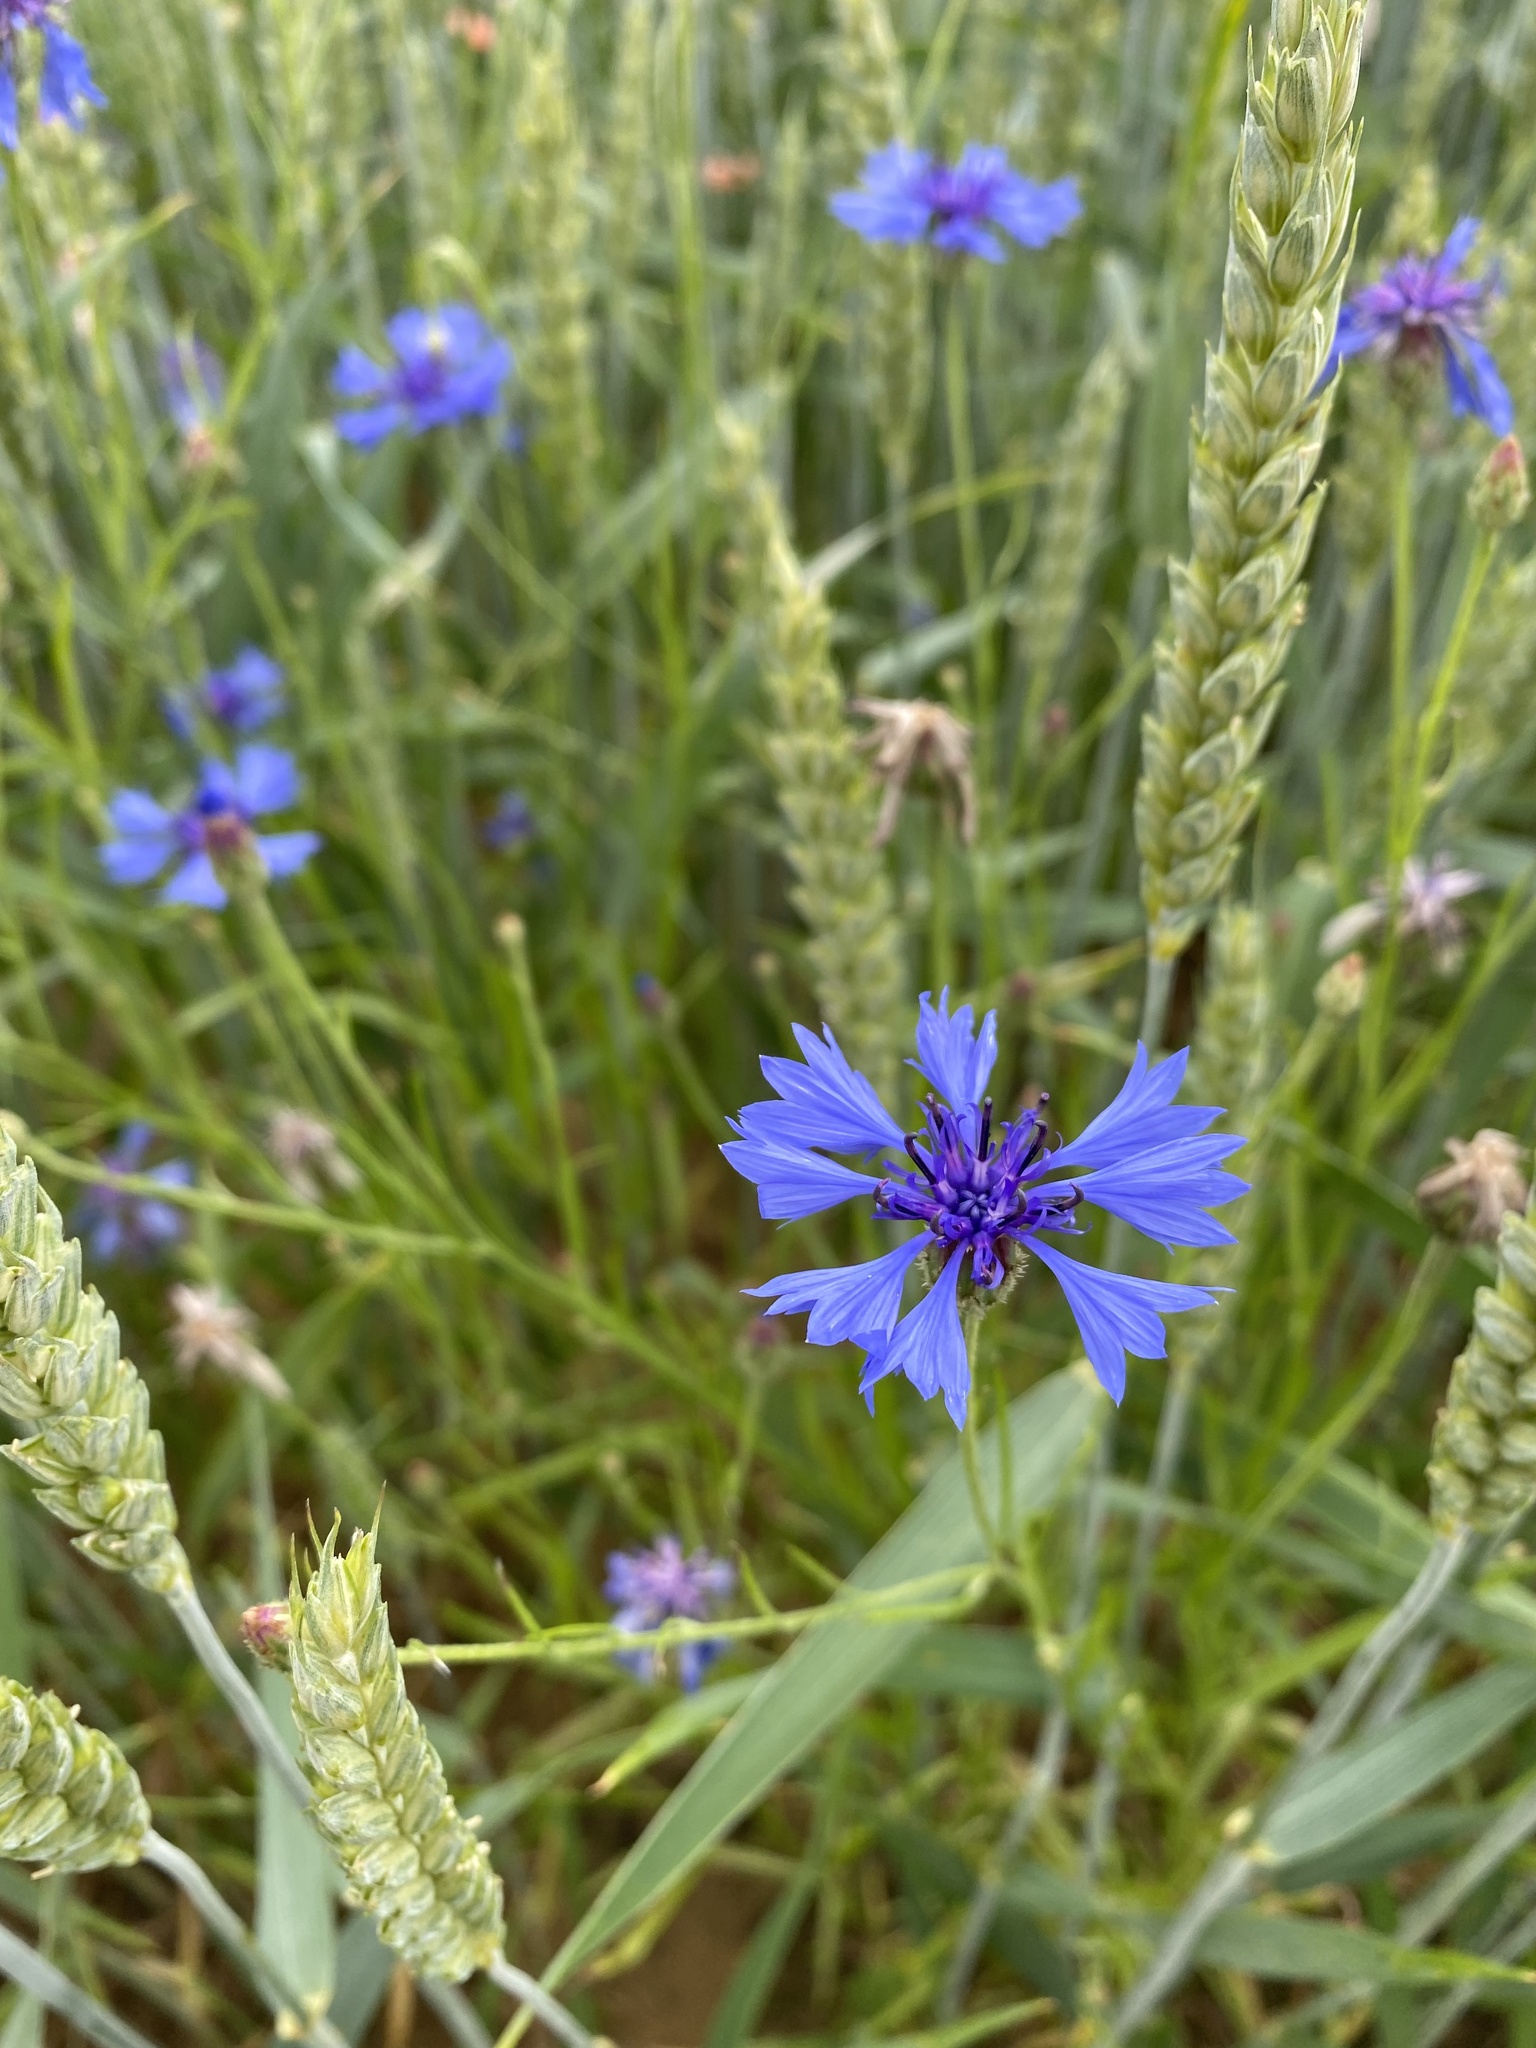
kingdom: Plantae
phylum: Tracheophyta
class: Magnoliopsida
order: Asterales
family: Asteraceae
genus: Centaurea
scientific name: Centaurea cyanus
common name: Cornflower
